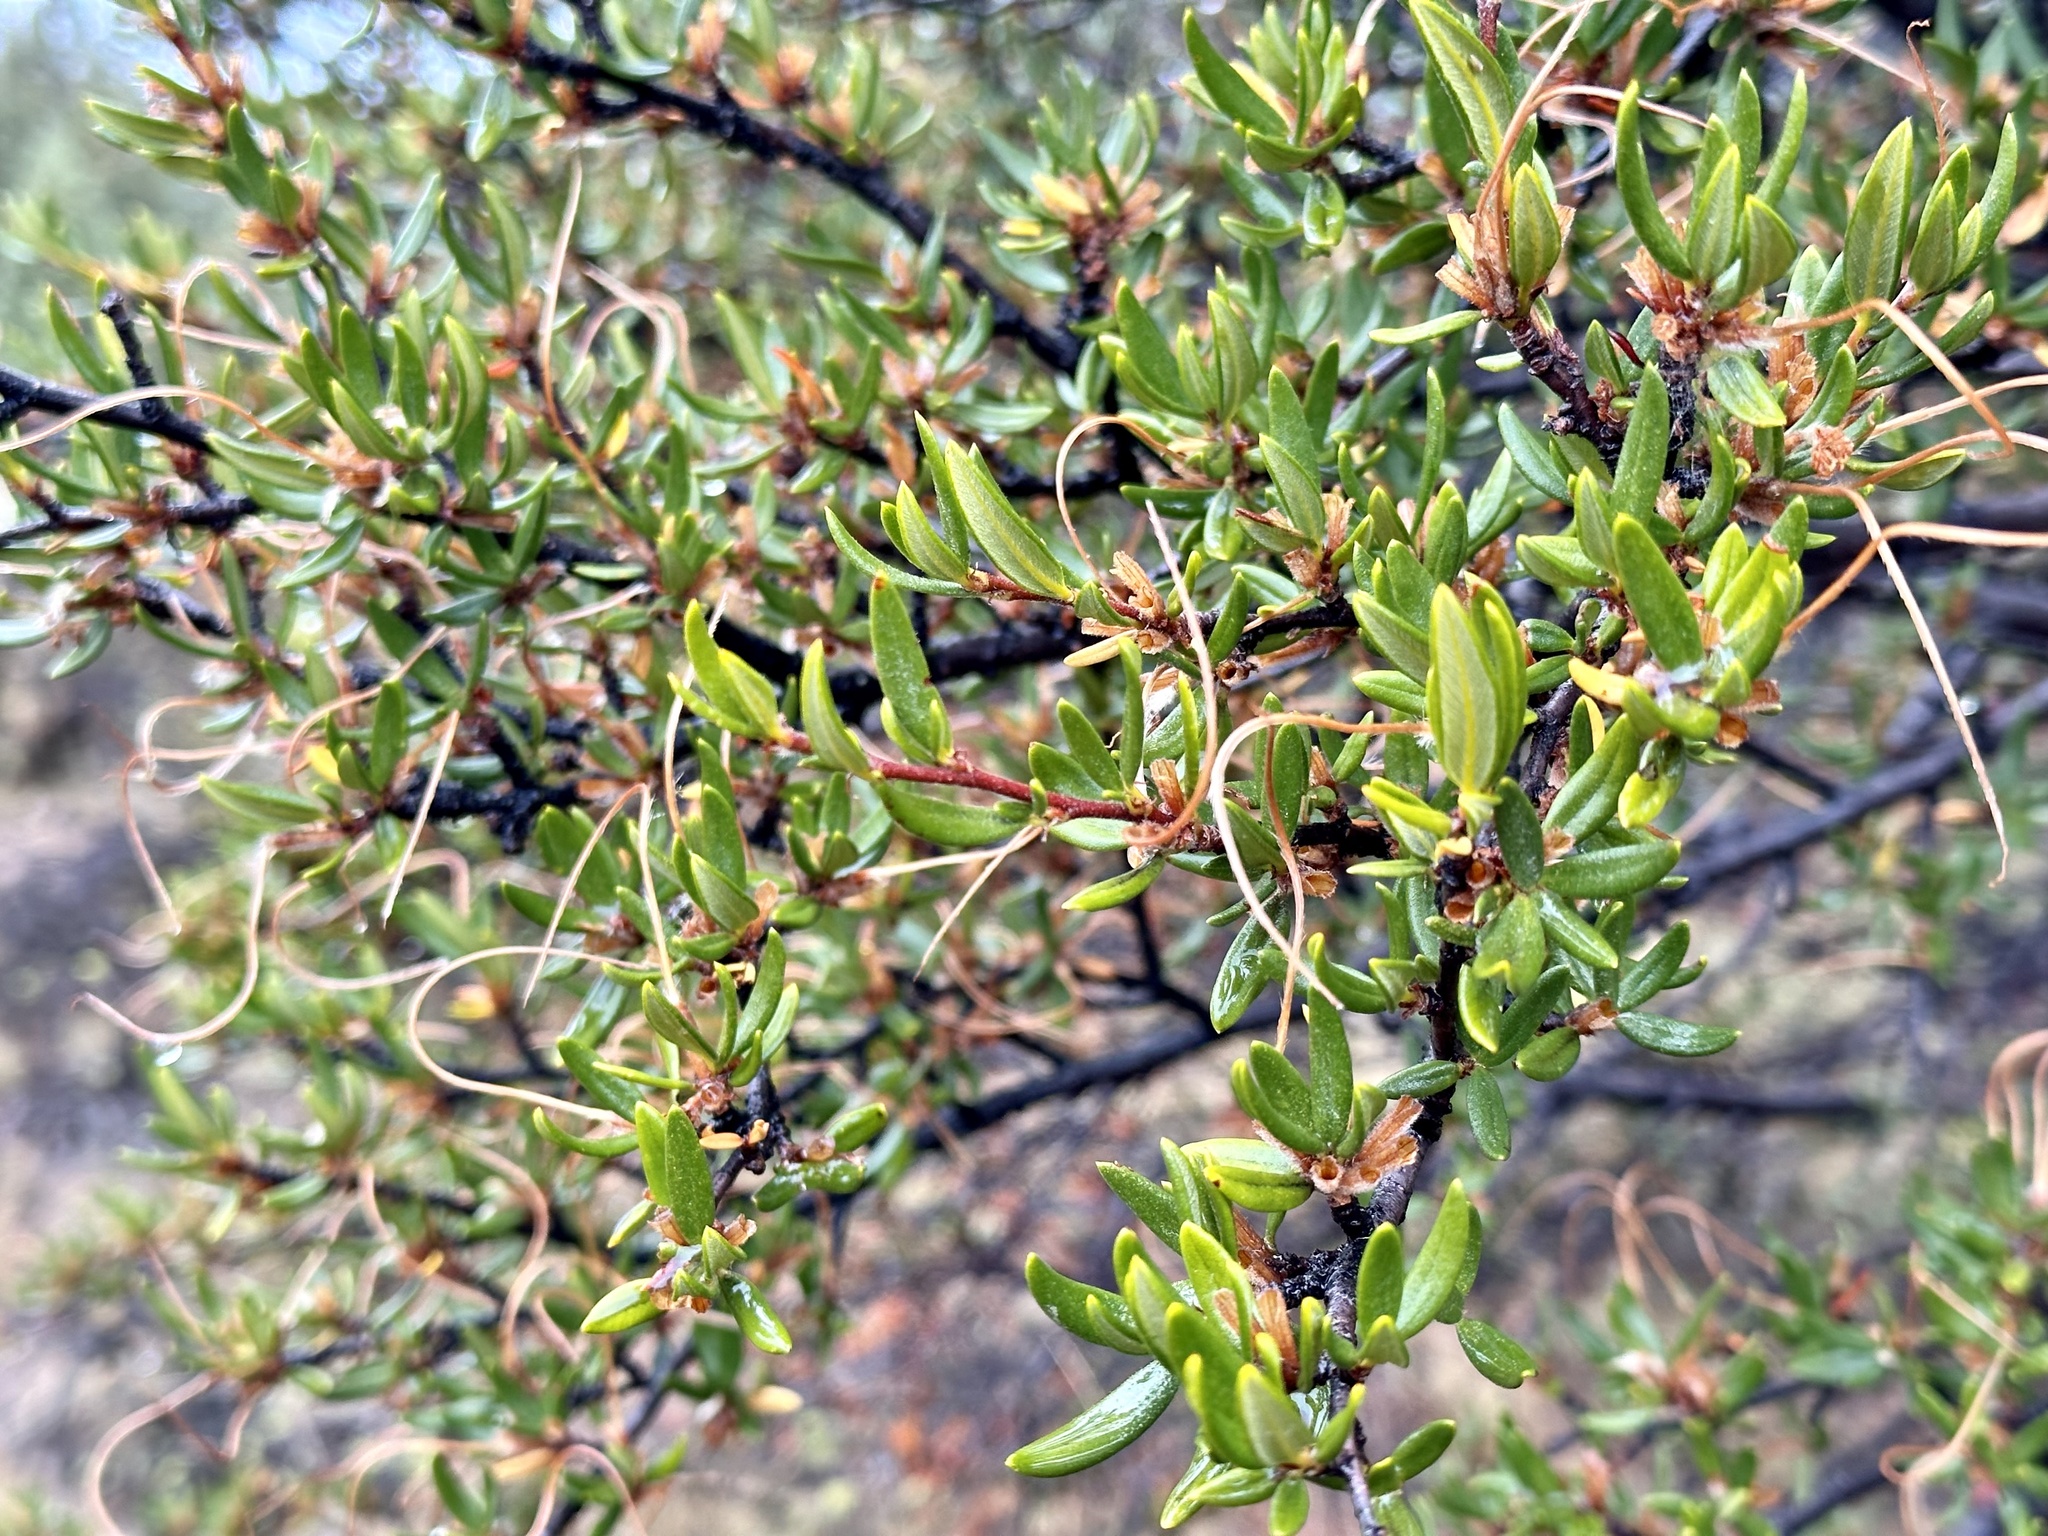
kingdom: Plantae
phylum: Tracheophyta
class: Magnoliopsida
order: Rosales
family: Rosaceae
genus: Cercocarpus
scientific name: Cercocarpus ledifolius
